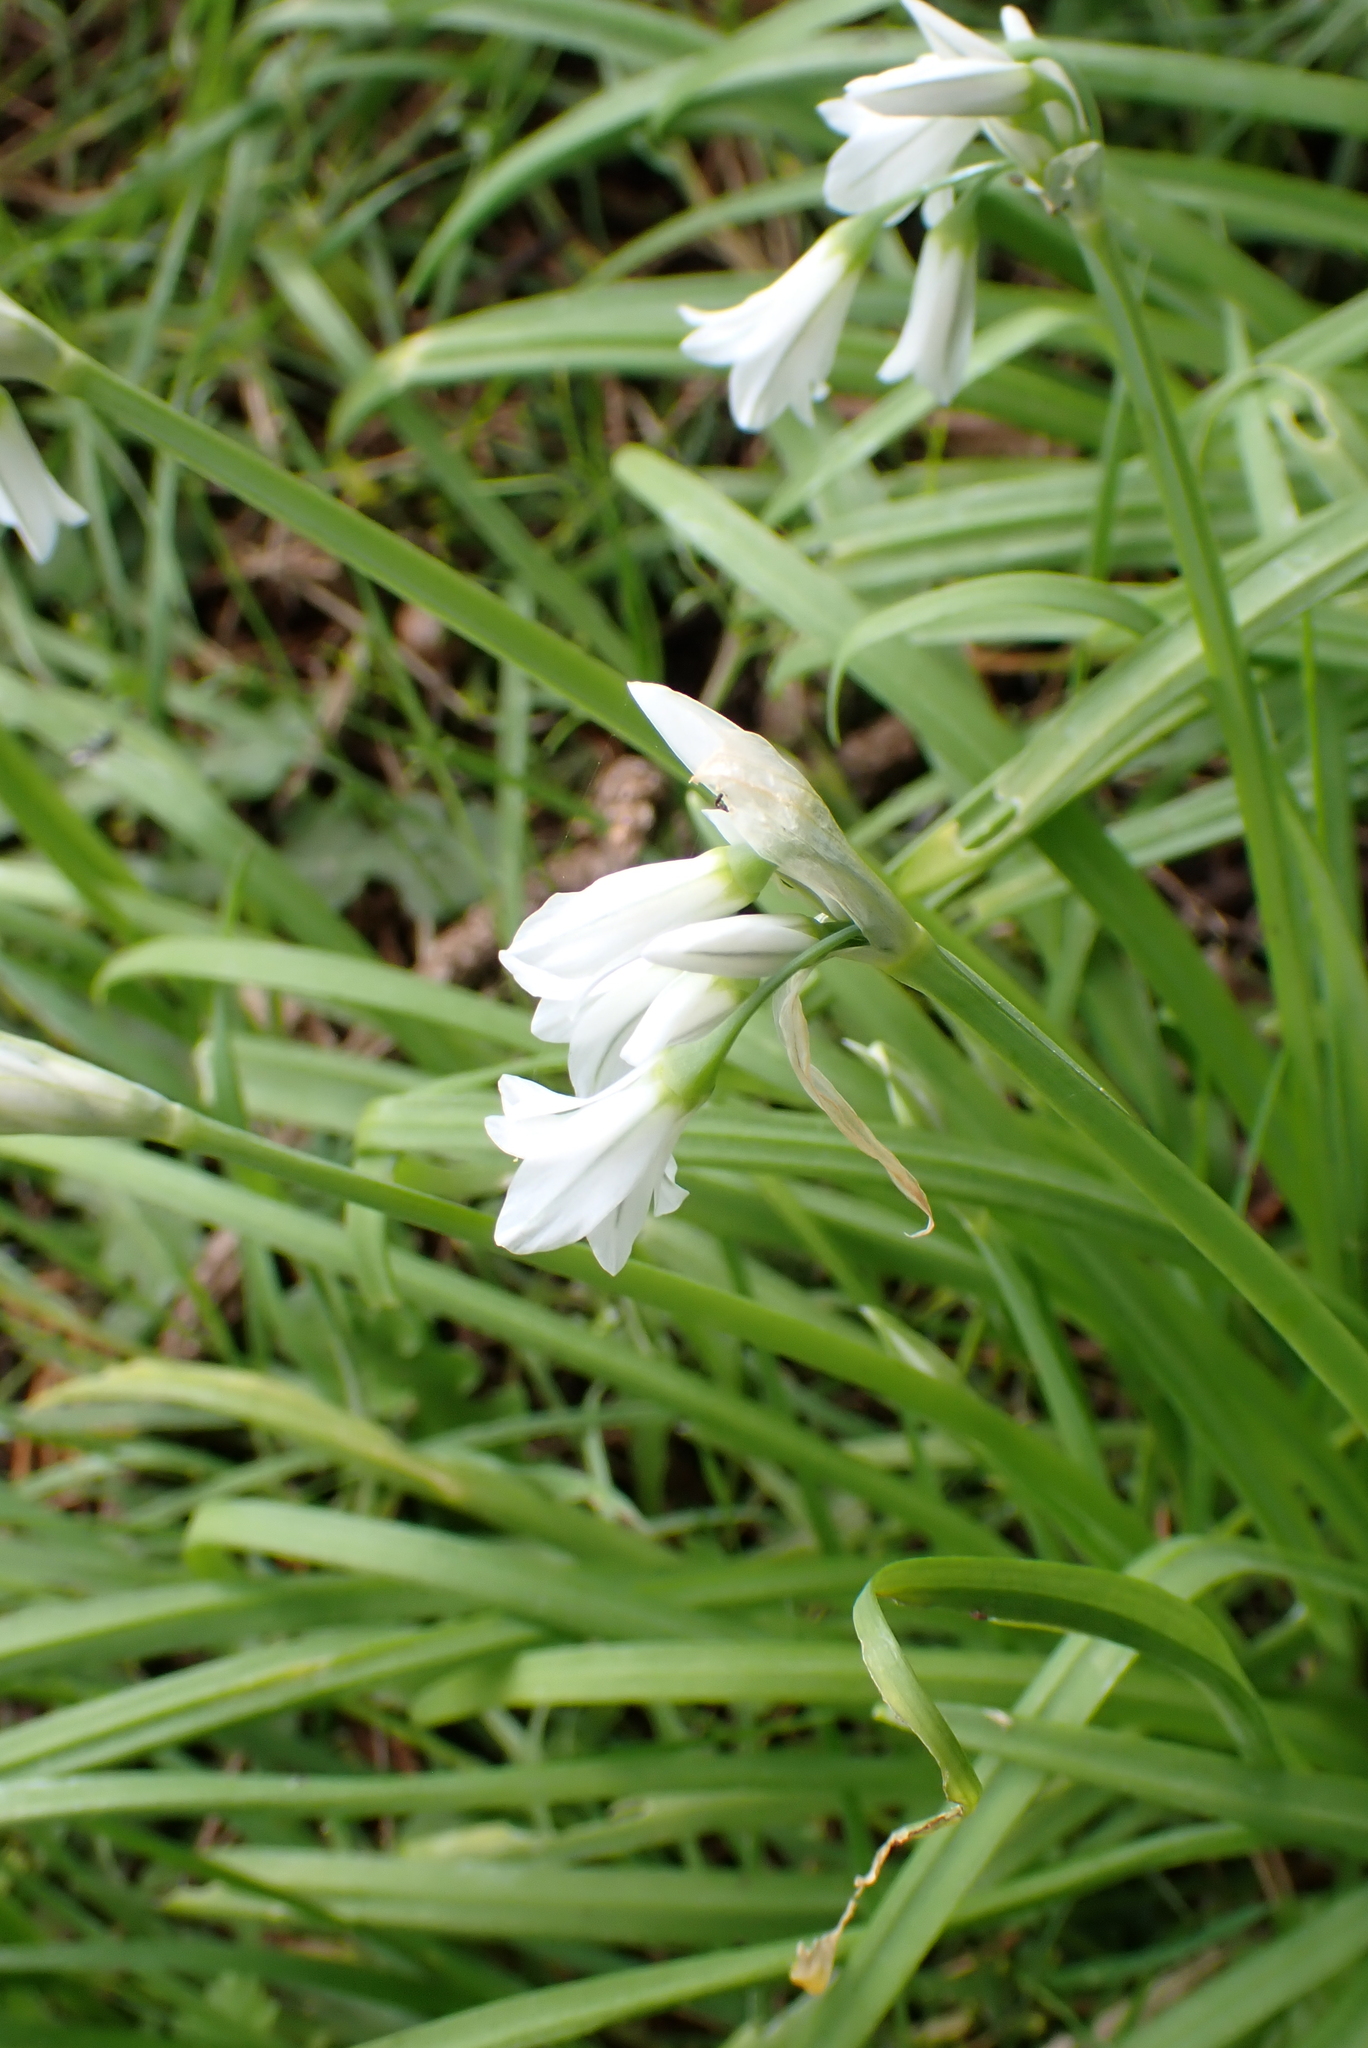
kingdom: Plantae
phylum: Tracheophyta
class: Liliopsida
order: Asparagales
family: Amaryllidaceae
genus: Allium
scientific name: Allium triquetrum
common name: Three-cornered garlic
